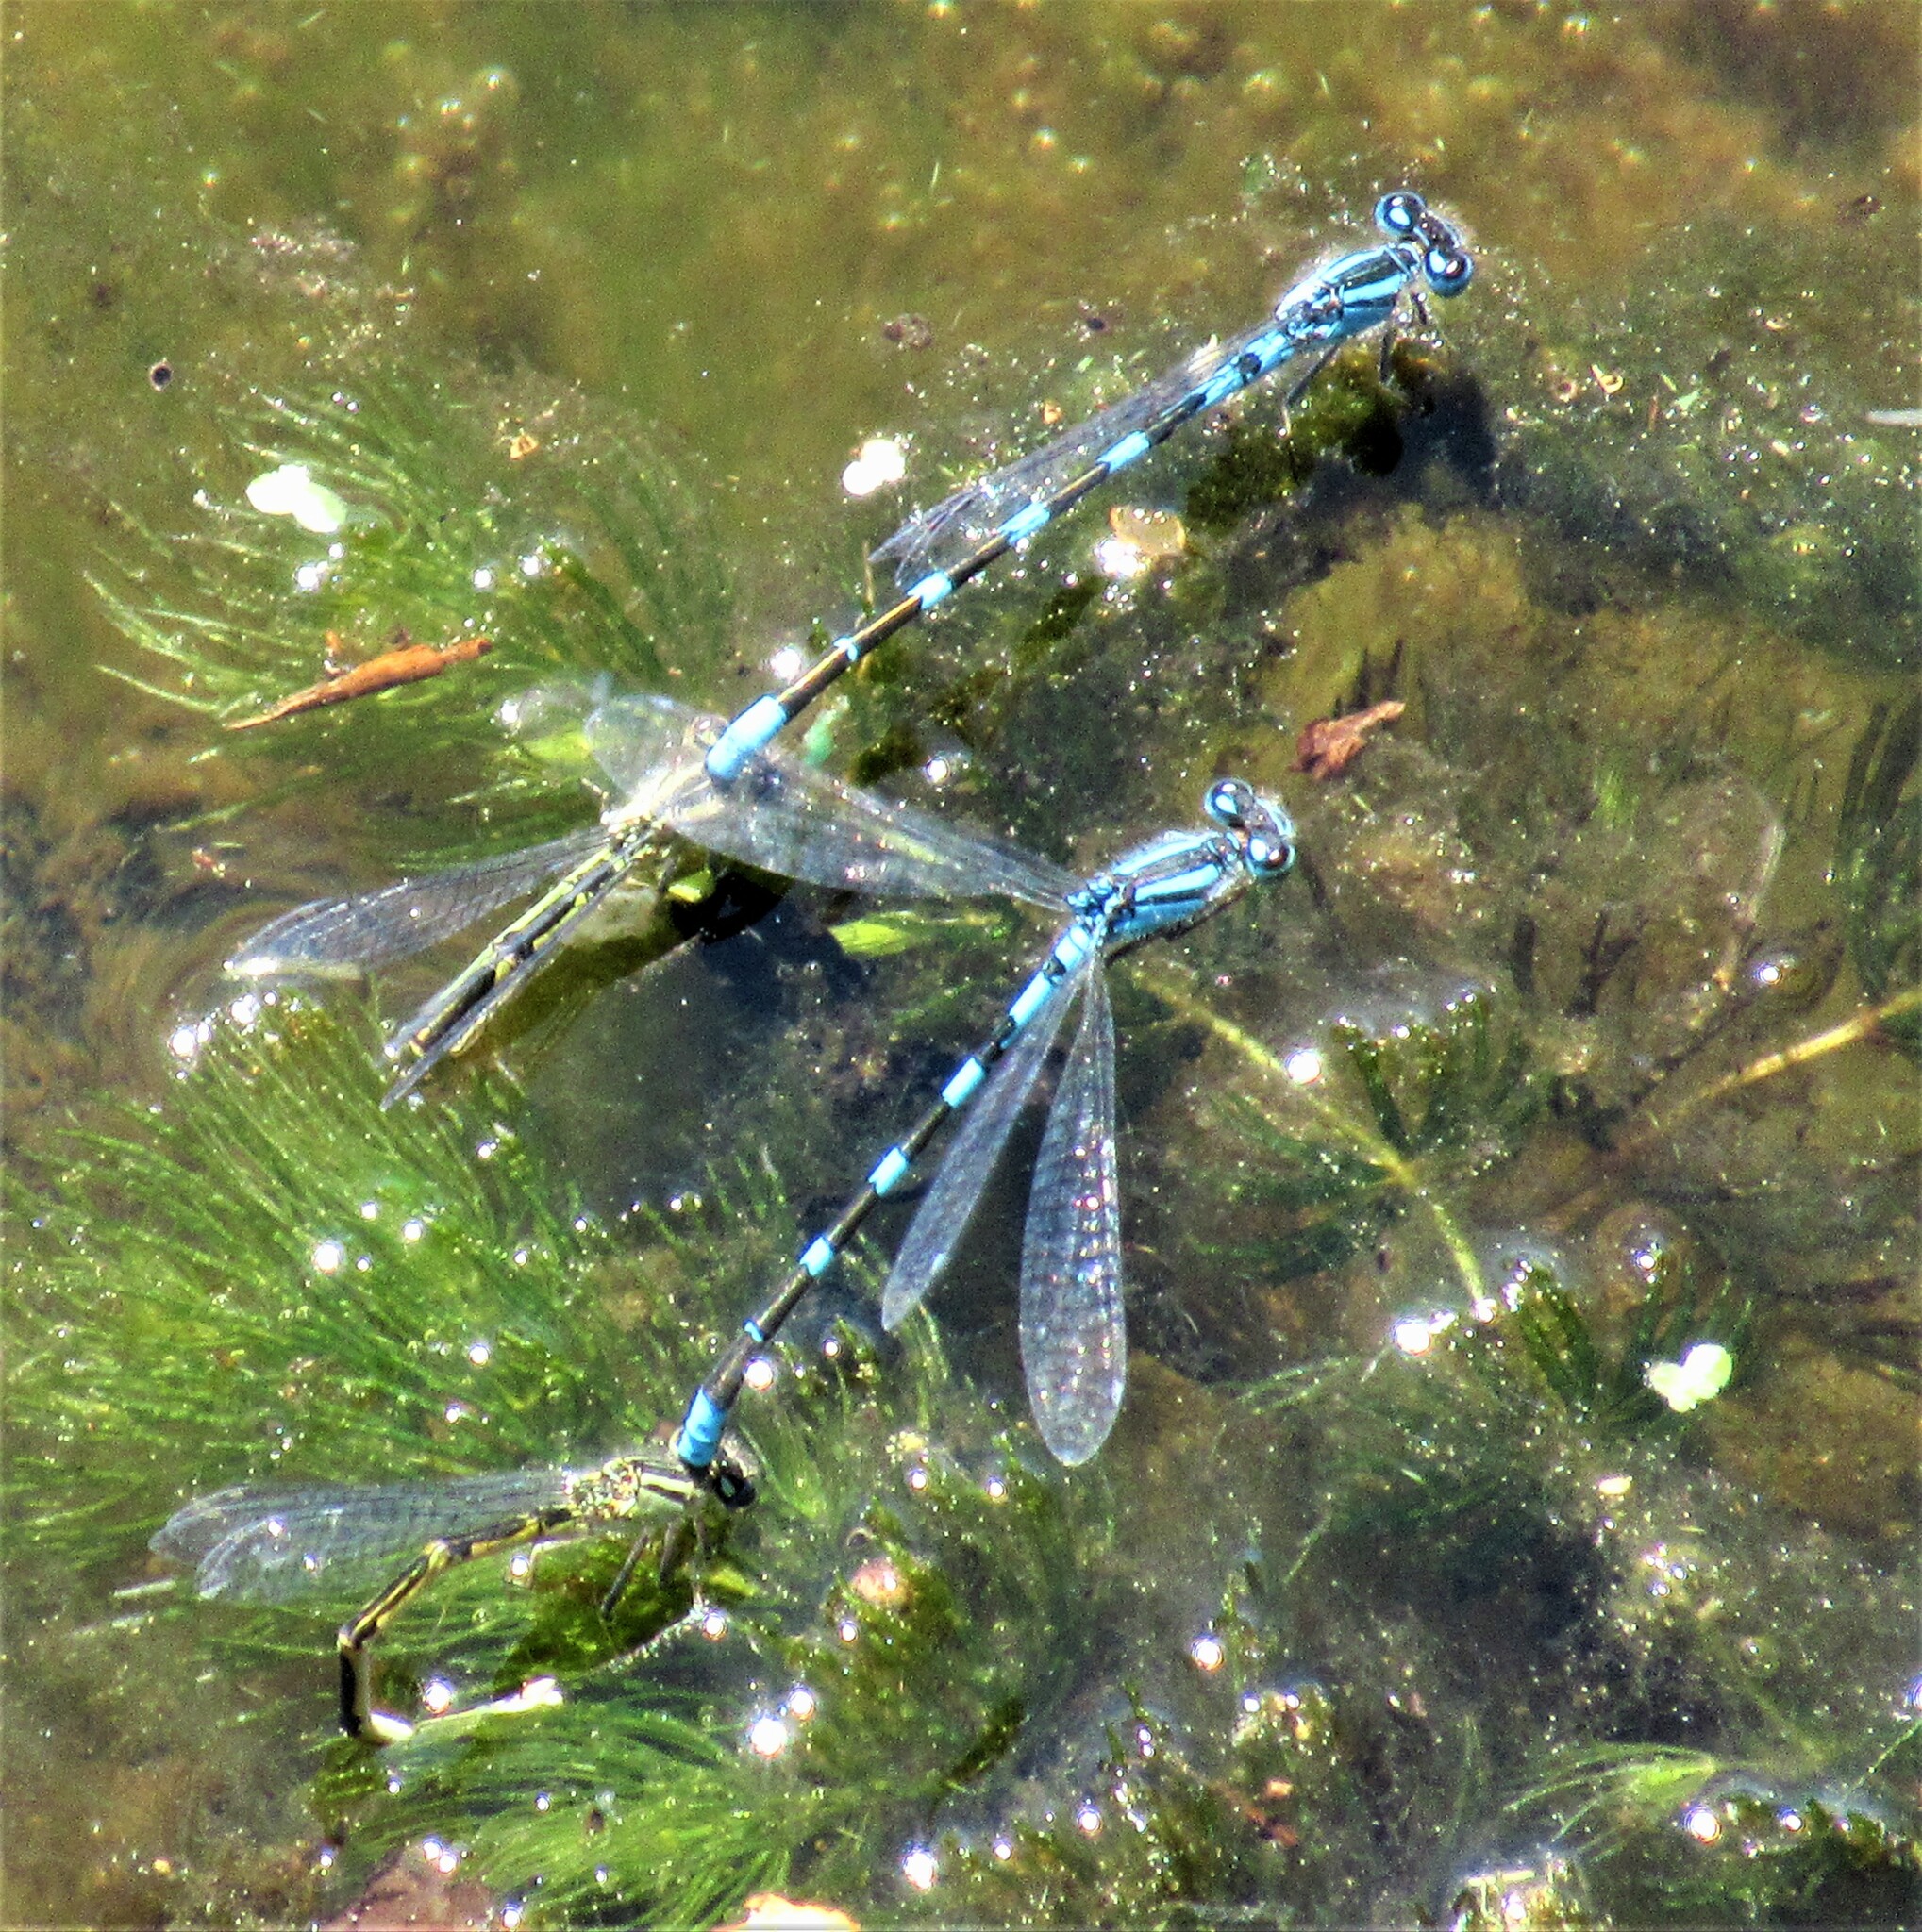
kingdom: Animalia
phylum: Arthropoda
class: Insecta
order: Odonata
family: Coenagrionidae
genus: Enallagma
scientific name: Enallagma carunculatum
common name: Tule bluet
